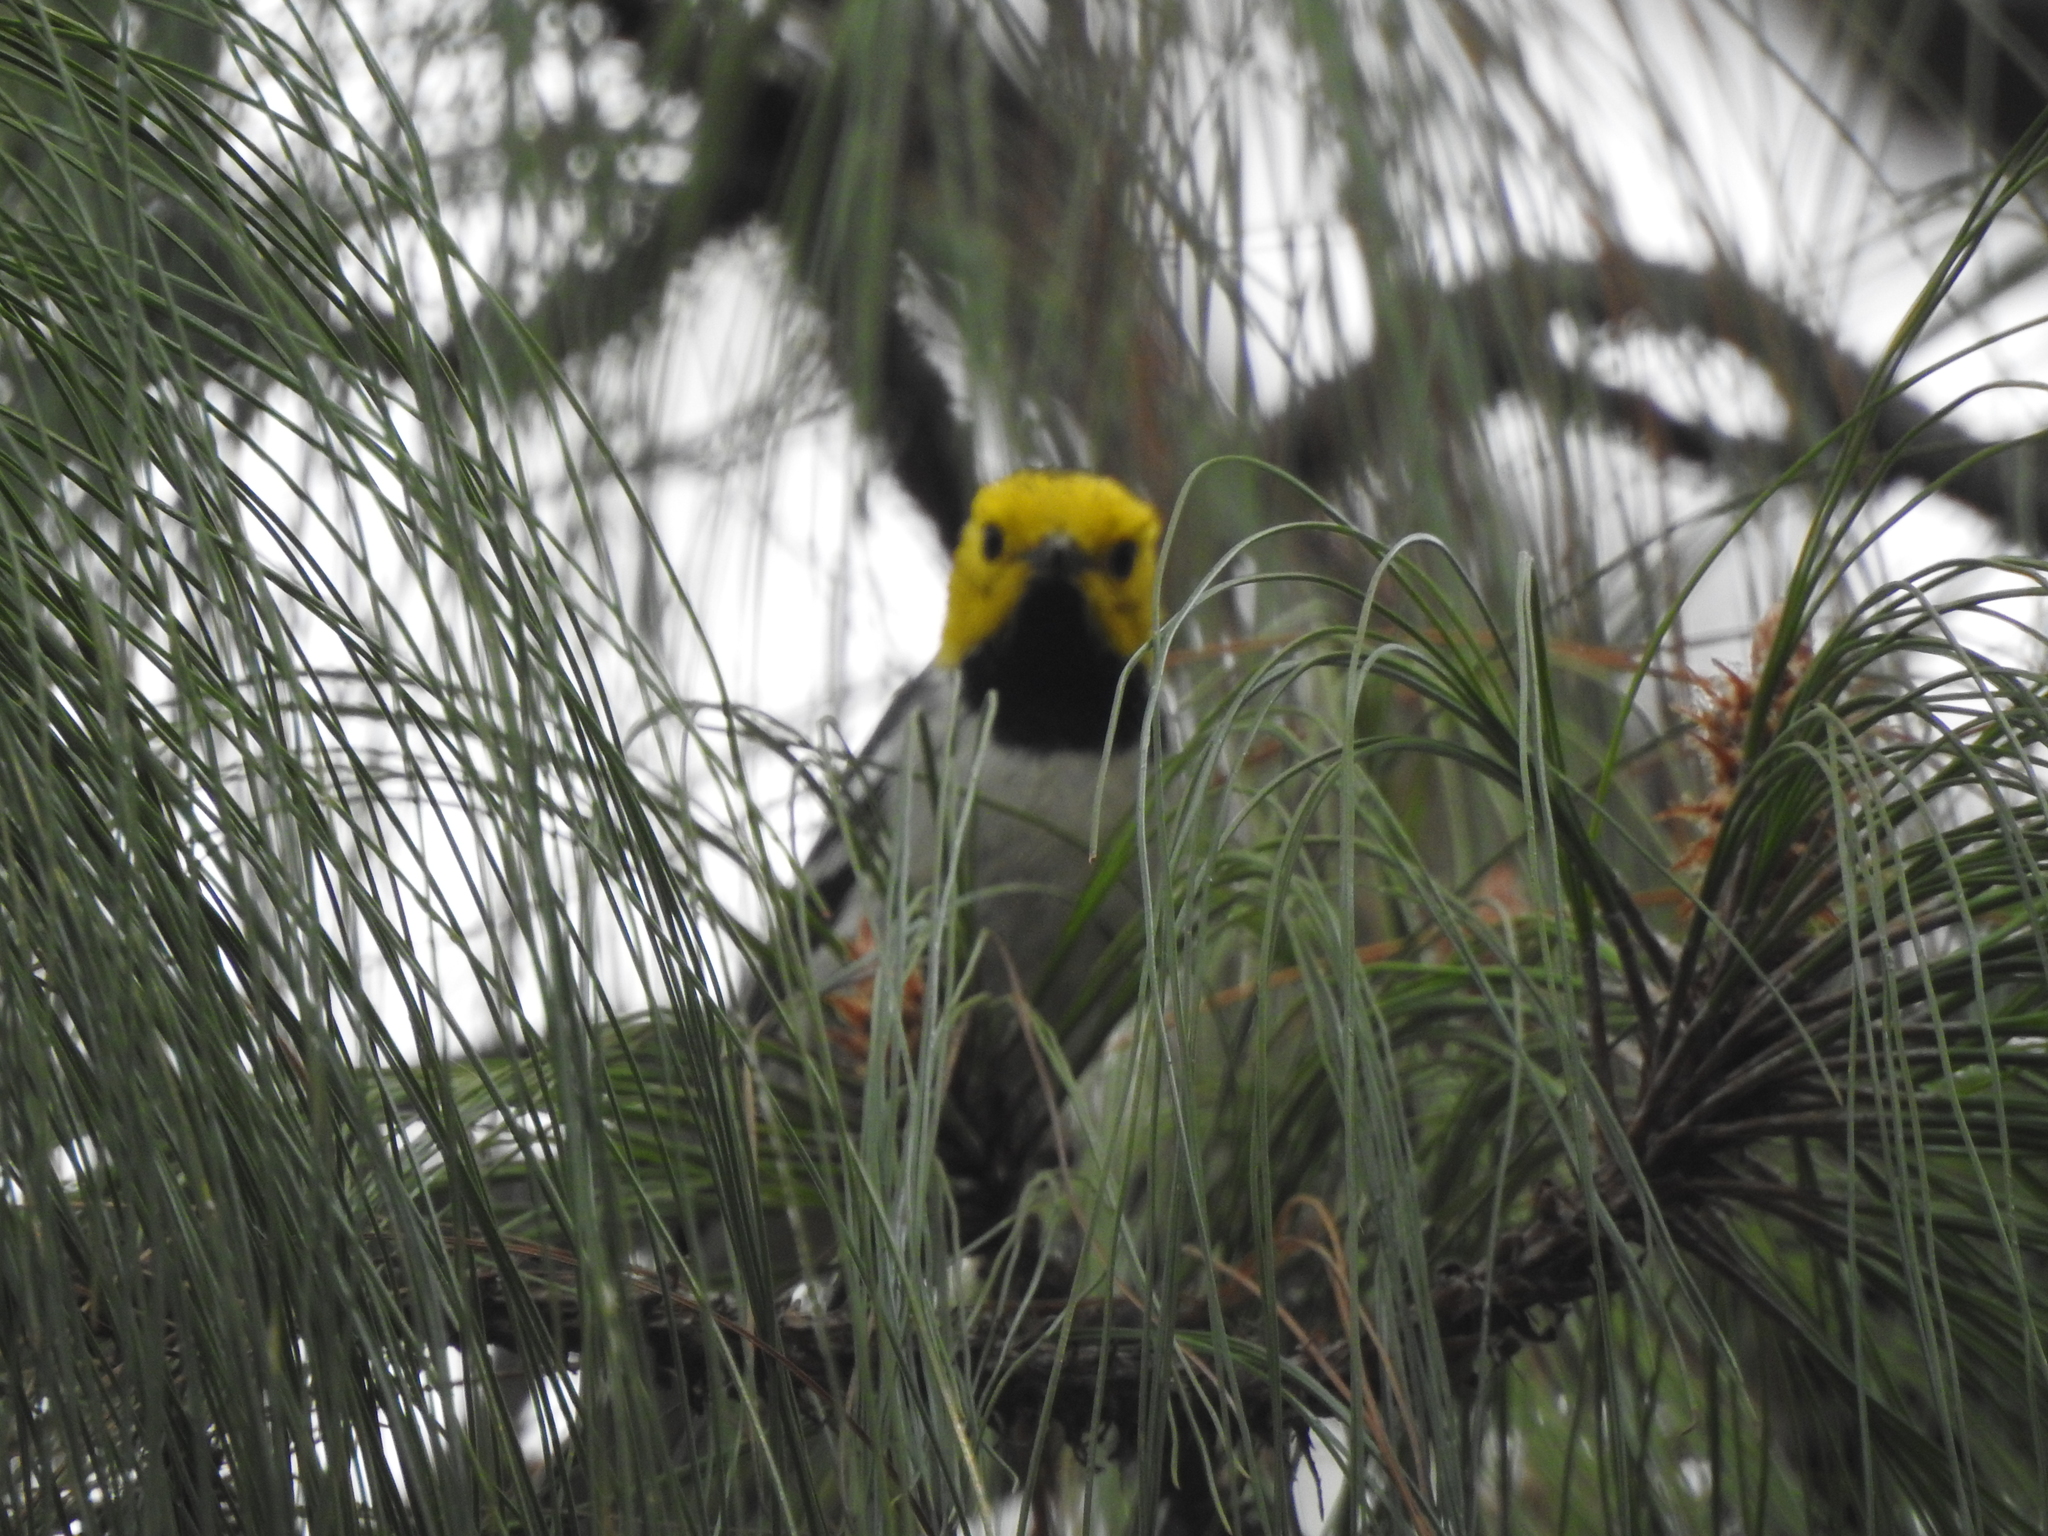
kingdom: Animalia
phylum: Chordata
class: Aves
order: Passeriformes
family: Parulidae
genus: Setophaga
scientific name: Setophaga occidentalis
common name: Hermit warbler
